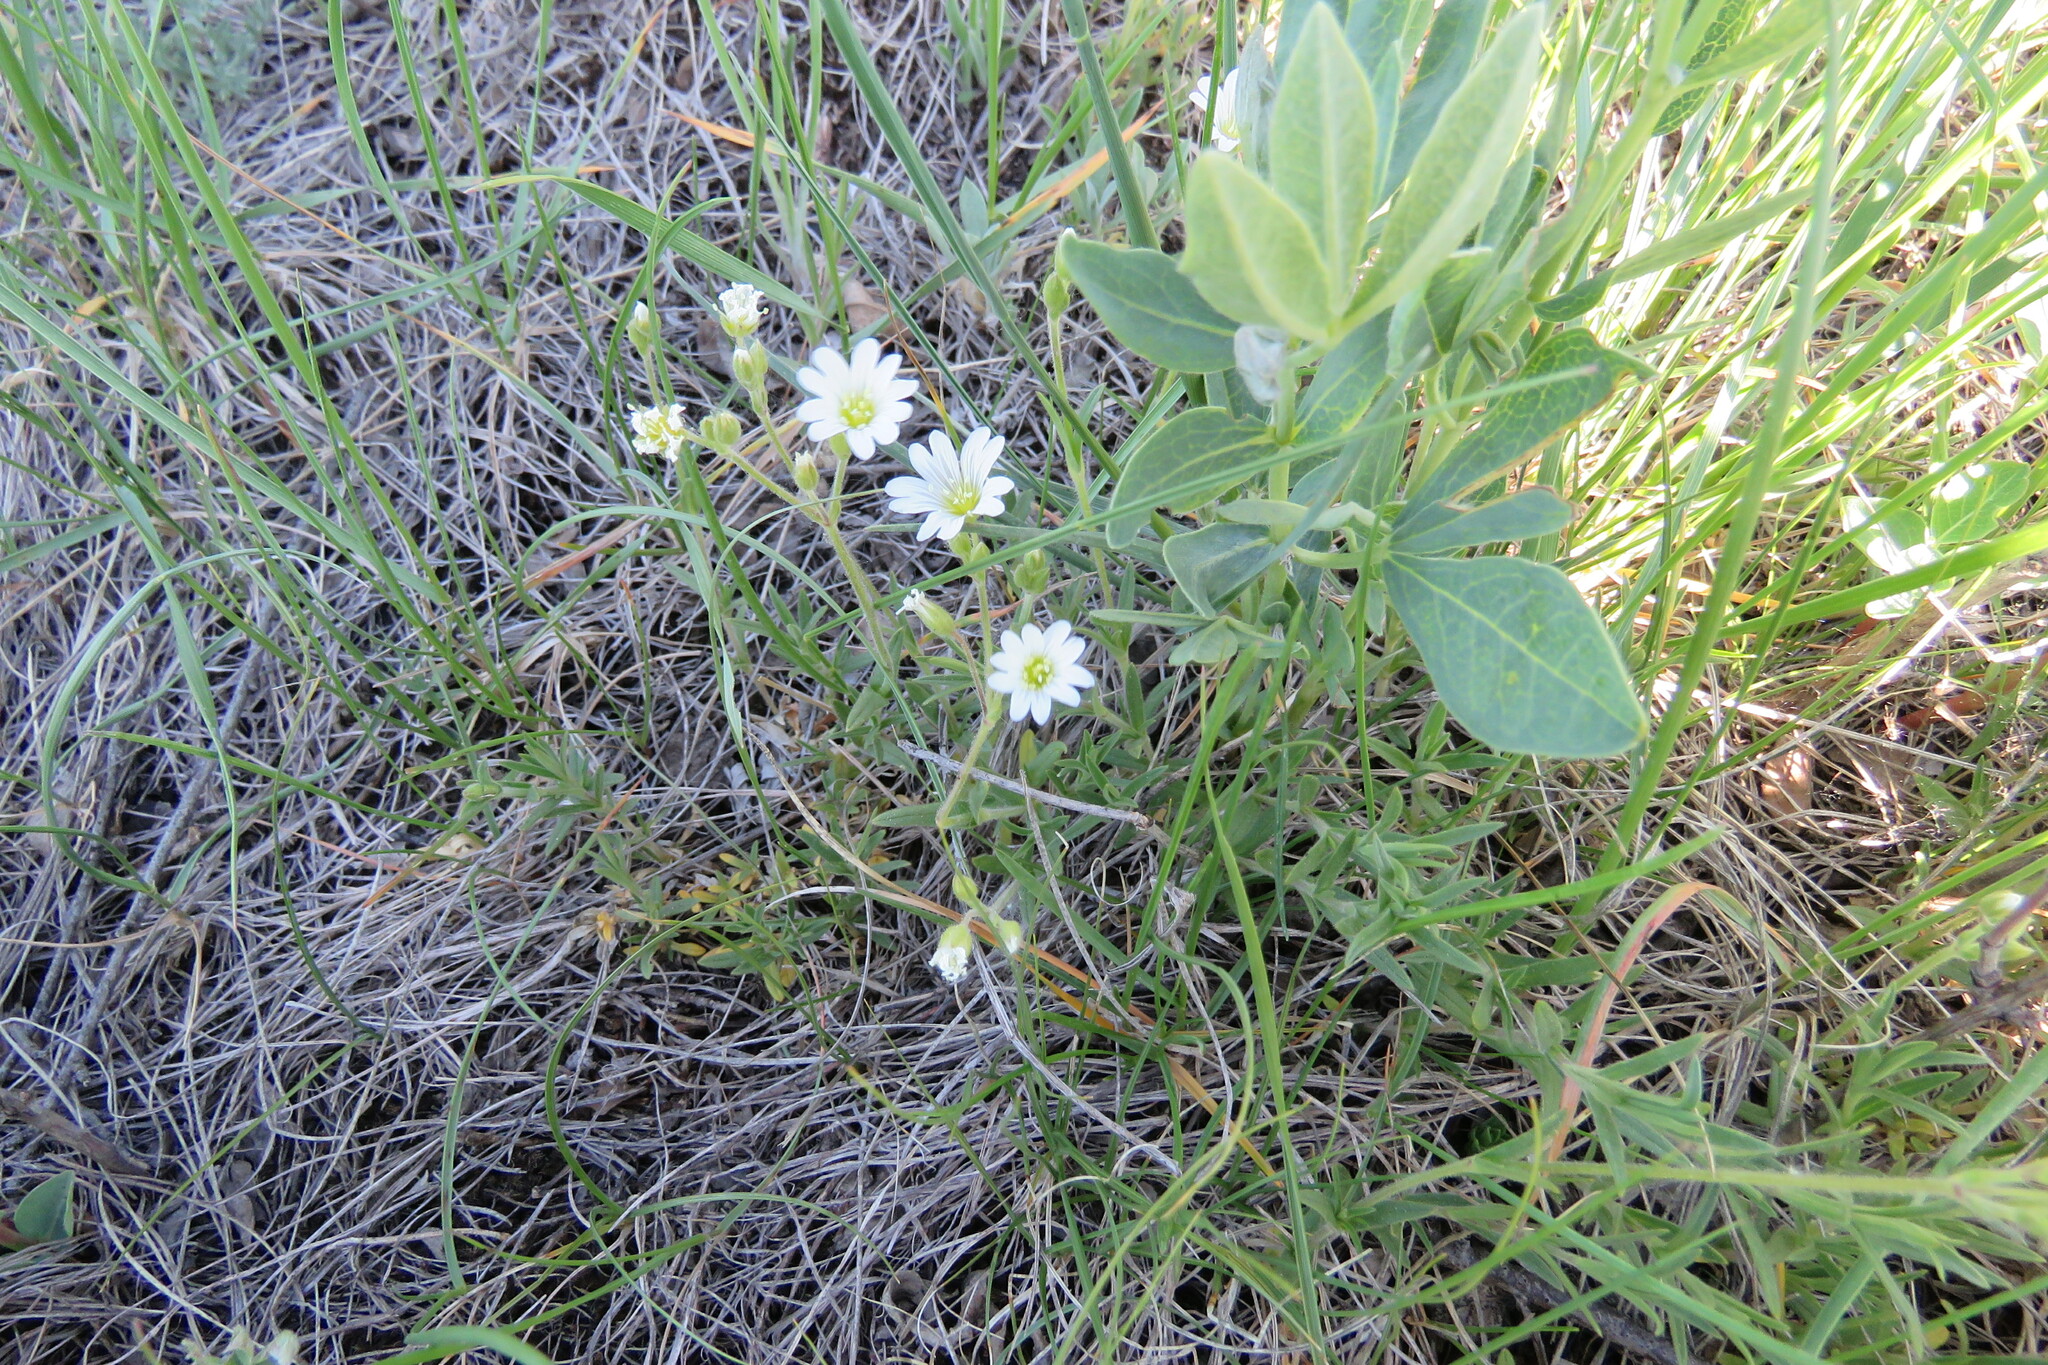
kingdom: Plantae
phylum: Tracheophyta
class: Magnoliopsida
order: Caryophyllales
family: Caryophyllaceae
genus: Cerastium
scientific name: Cerastium arvense
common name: Field mouse-ear
